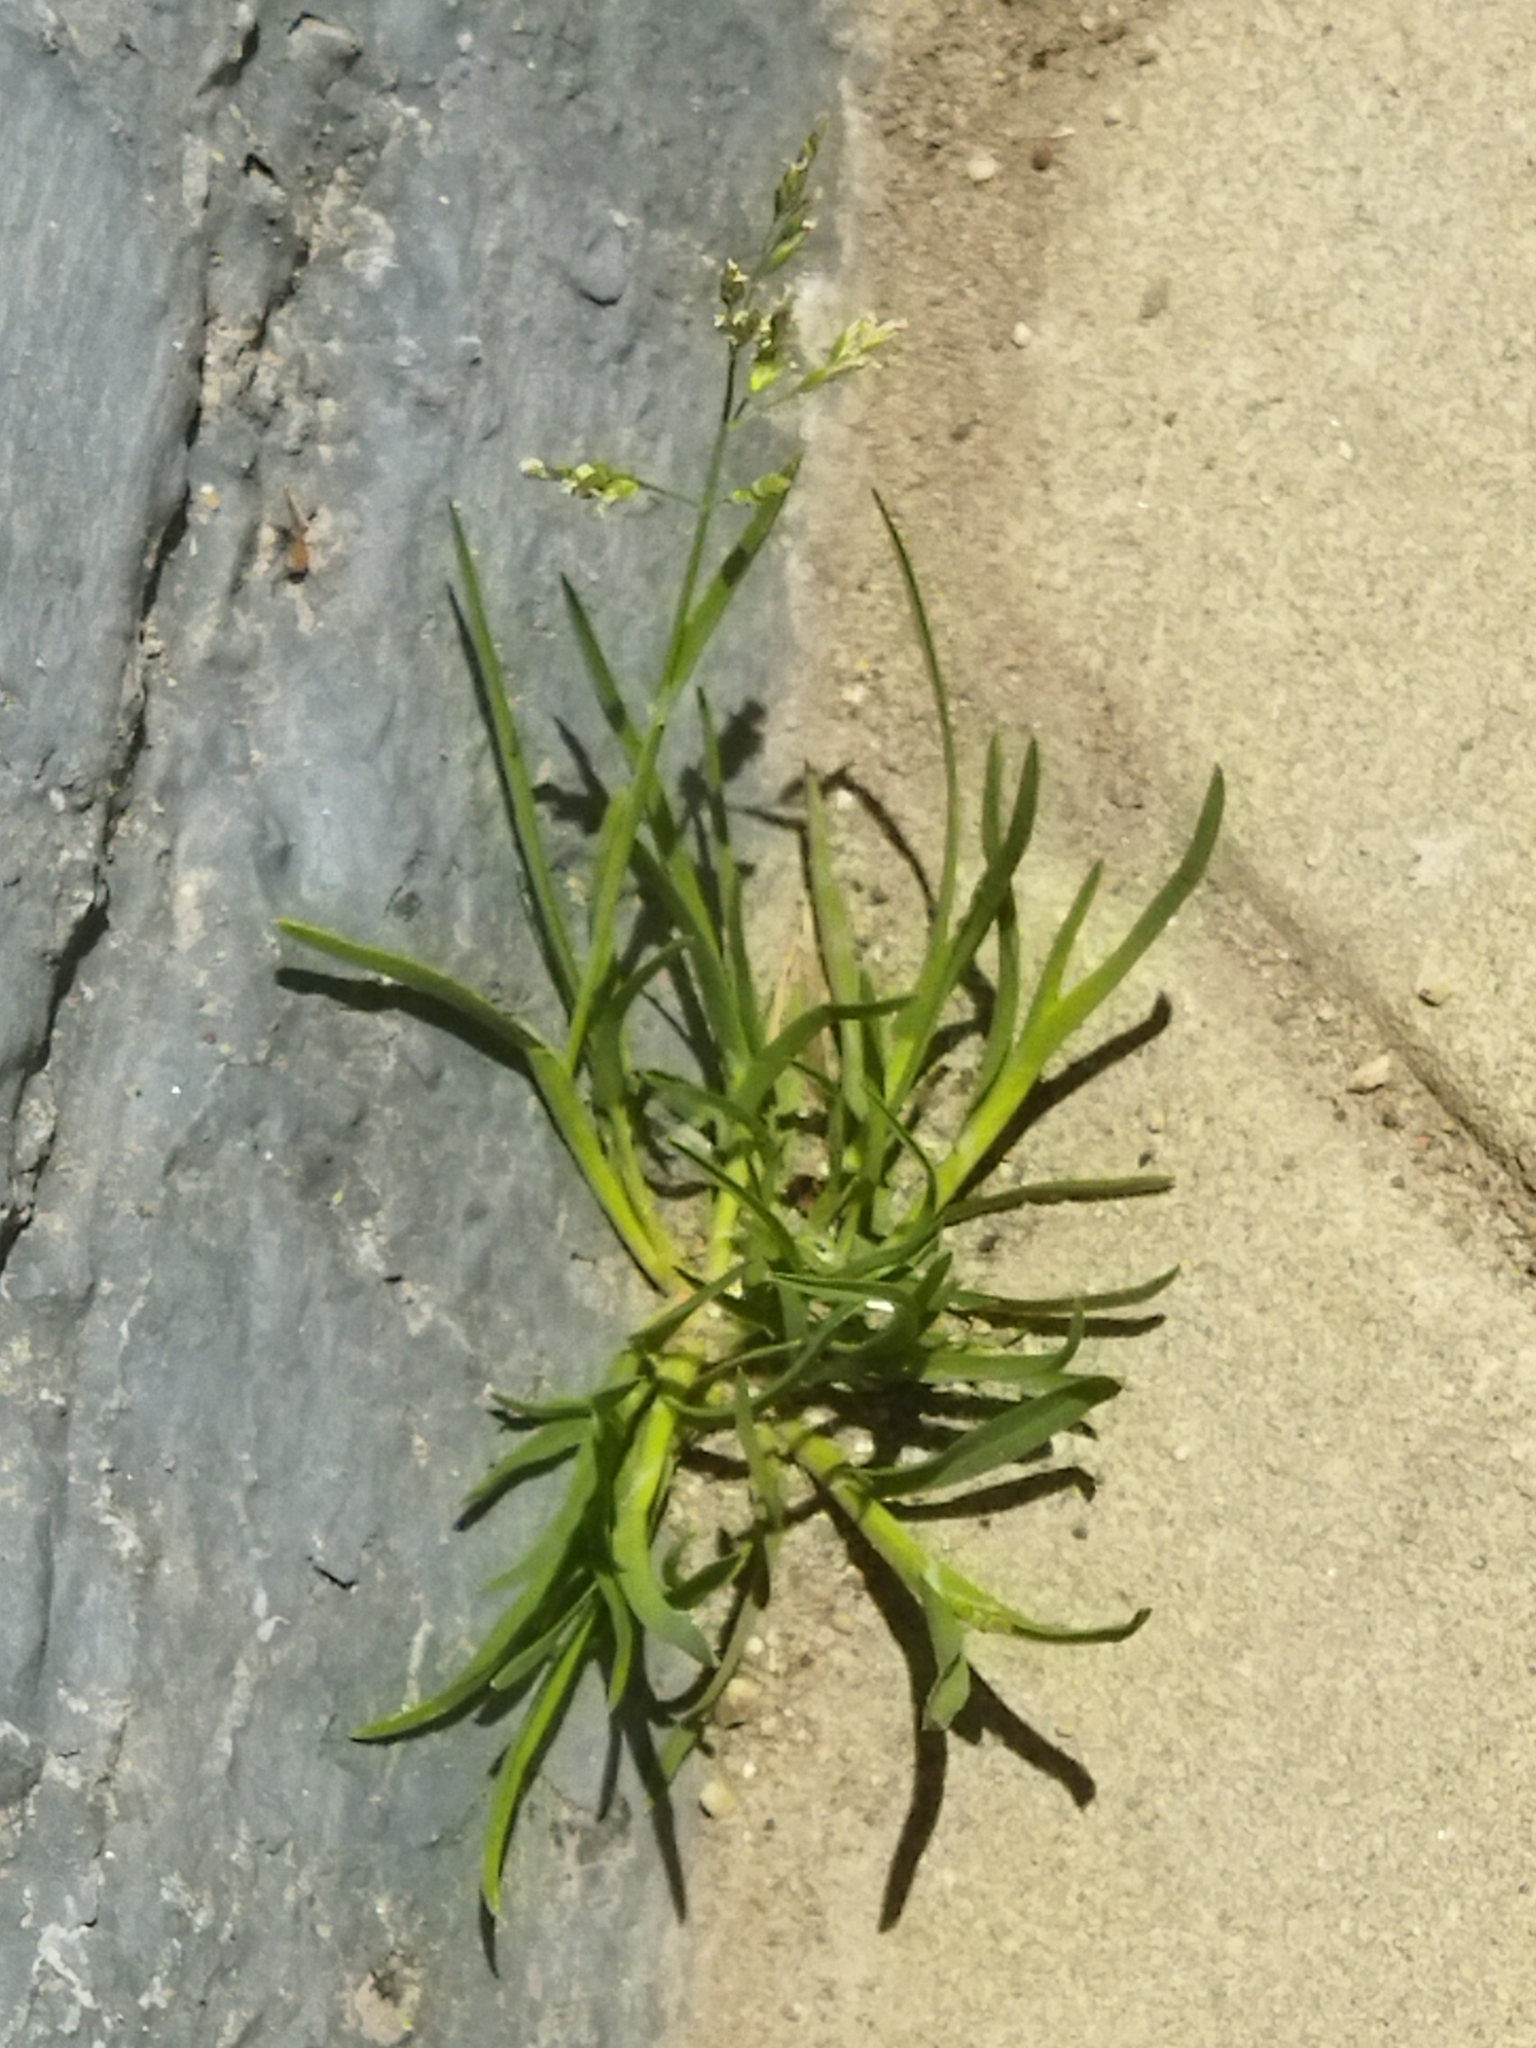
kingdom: Plantae
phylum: Tracheophyta
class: Liliopsida
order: Poales
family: Poaceae
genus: Poa
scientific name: Poa annua
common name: Annual bluegrass
